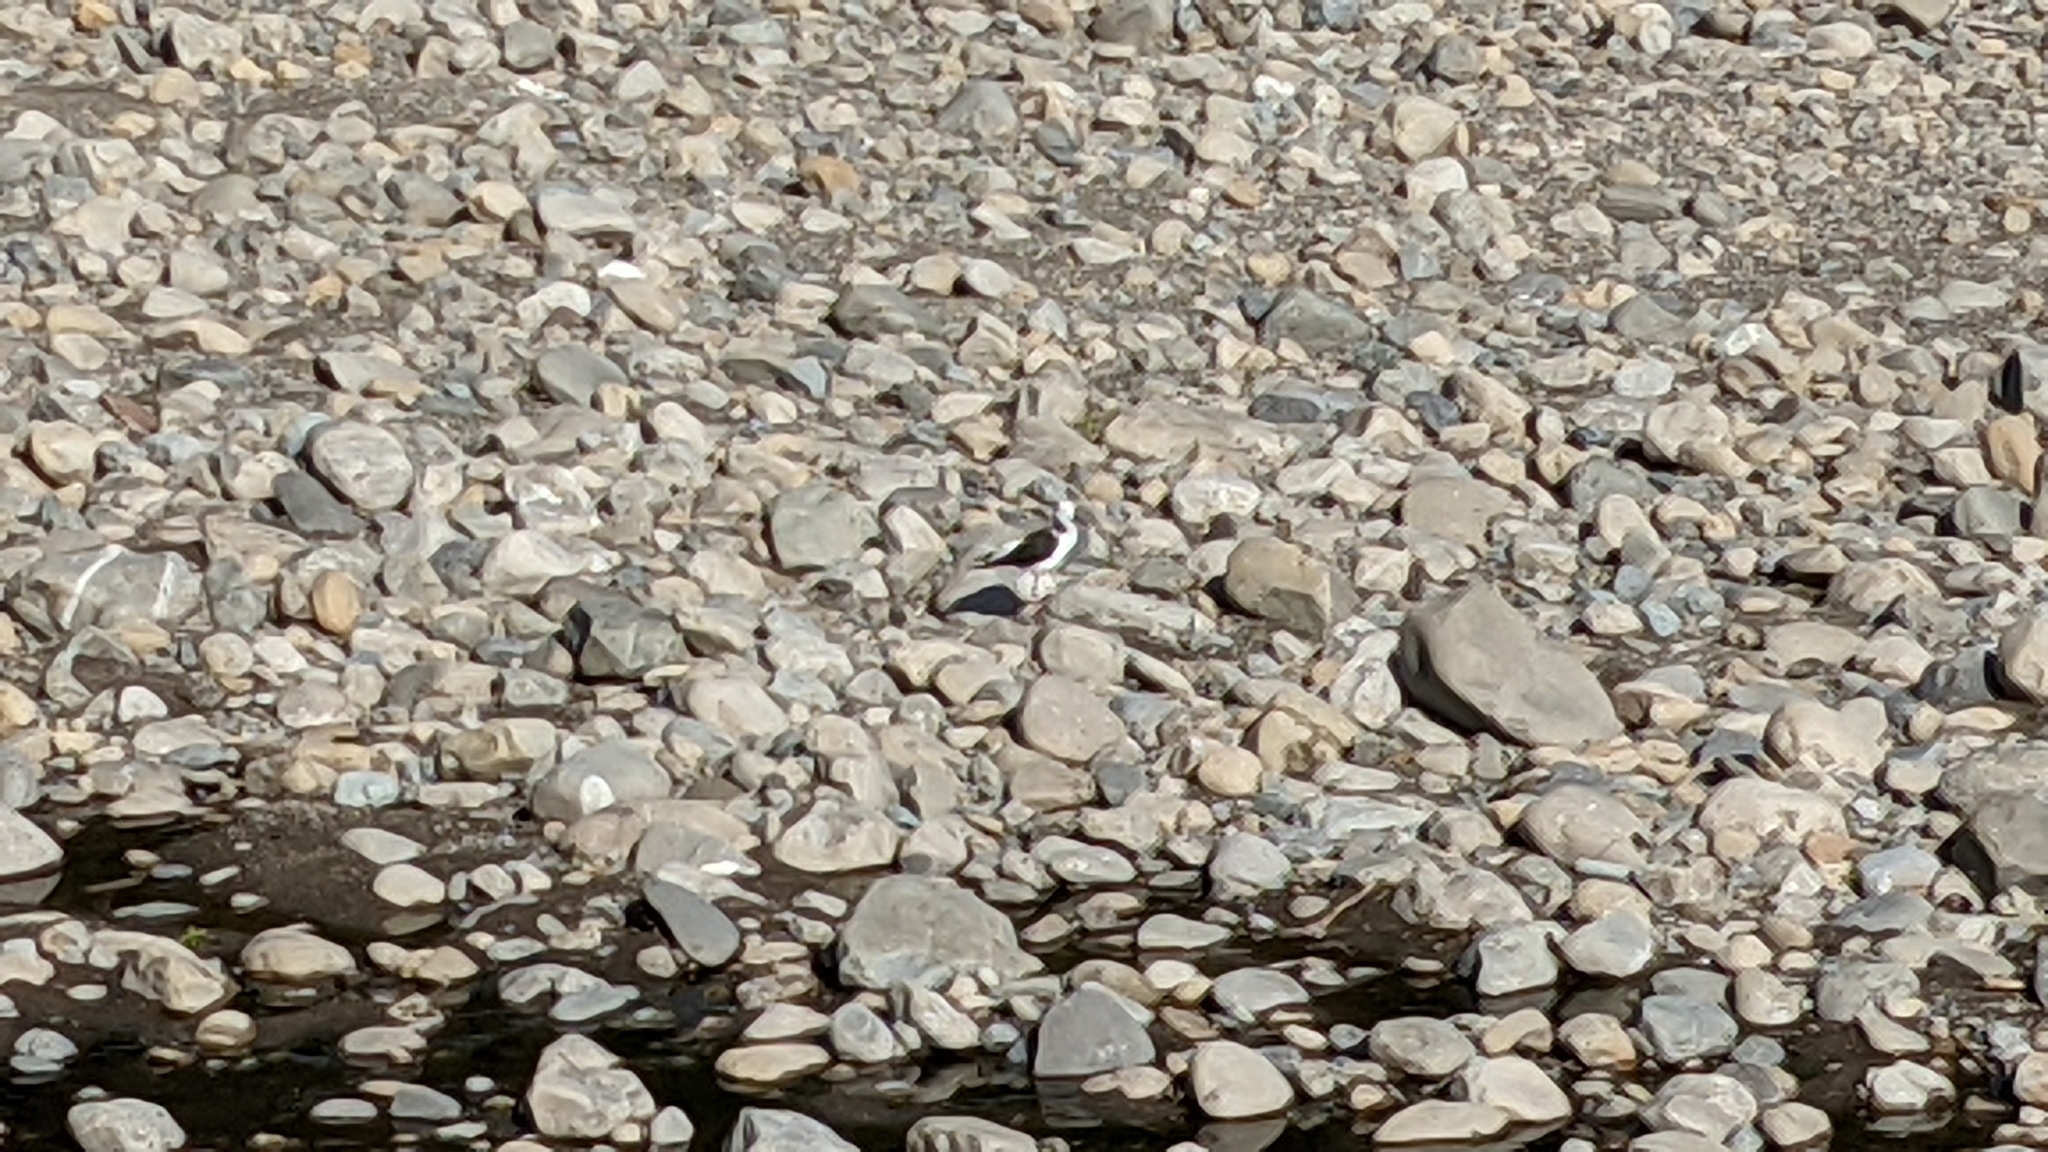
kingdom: Animalia
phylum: Chordata
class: Aves
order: Charadriiformes
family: Recurvirostridae
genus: Himantopus
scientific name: Himantopus leucocephalus
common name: White-headed stilt
